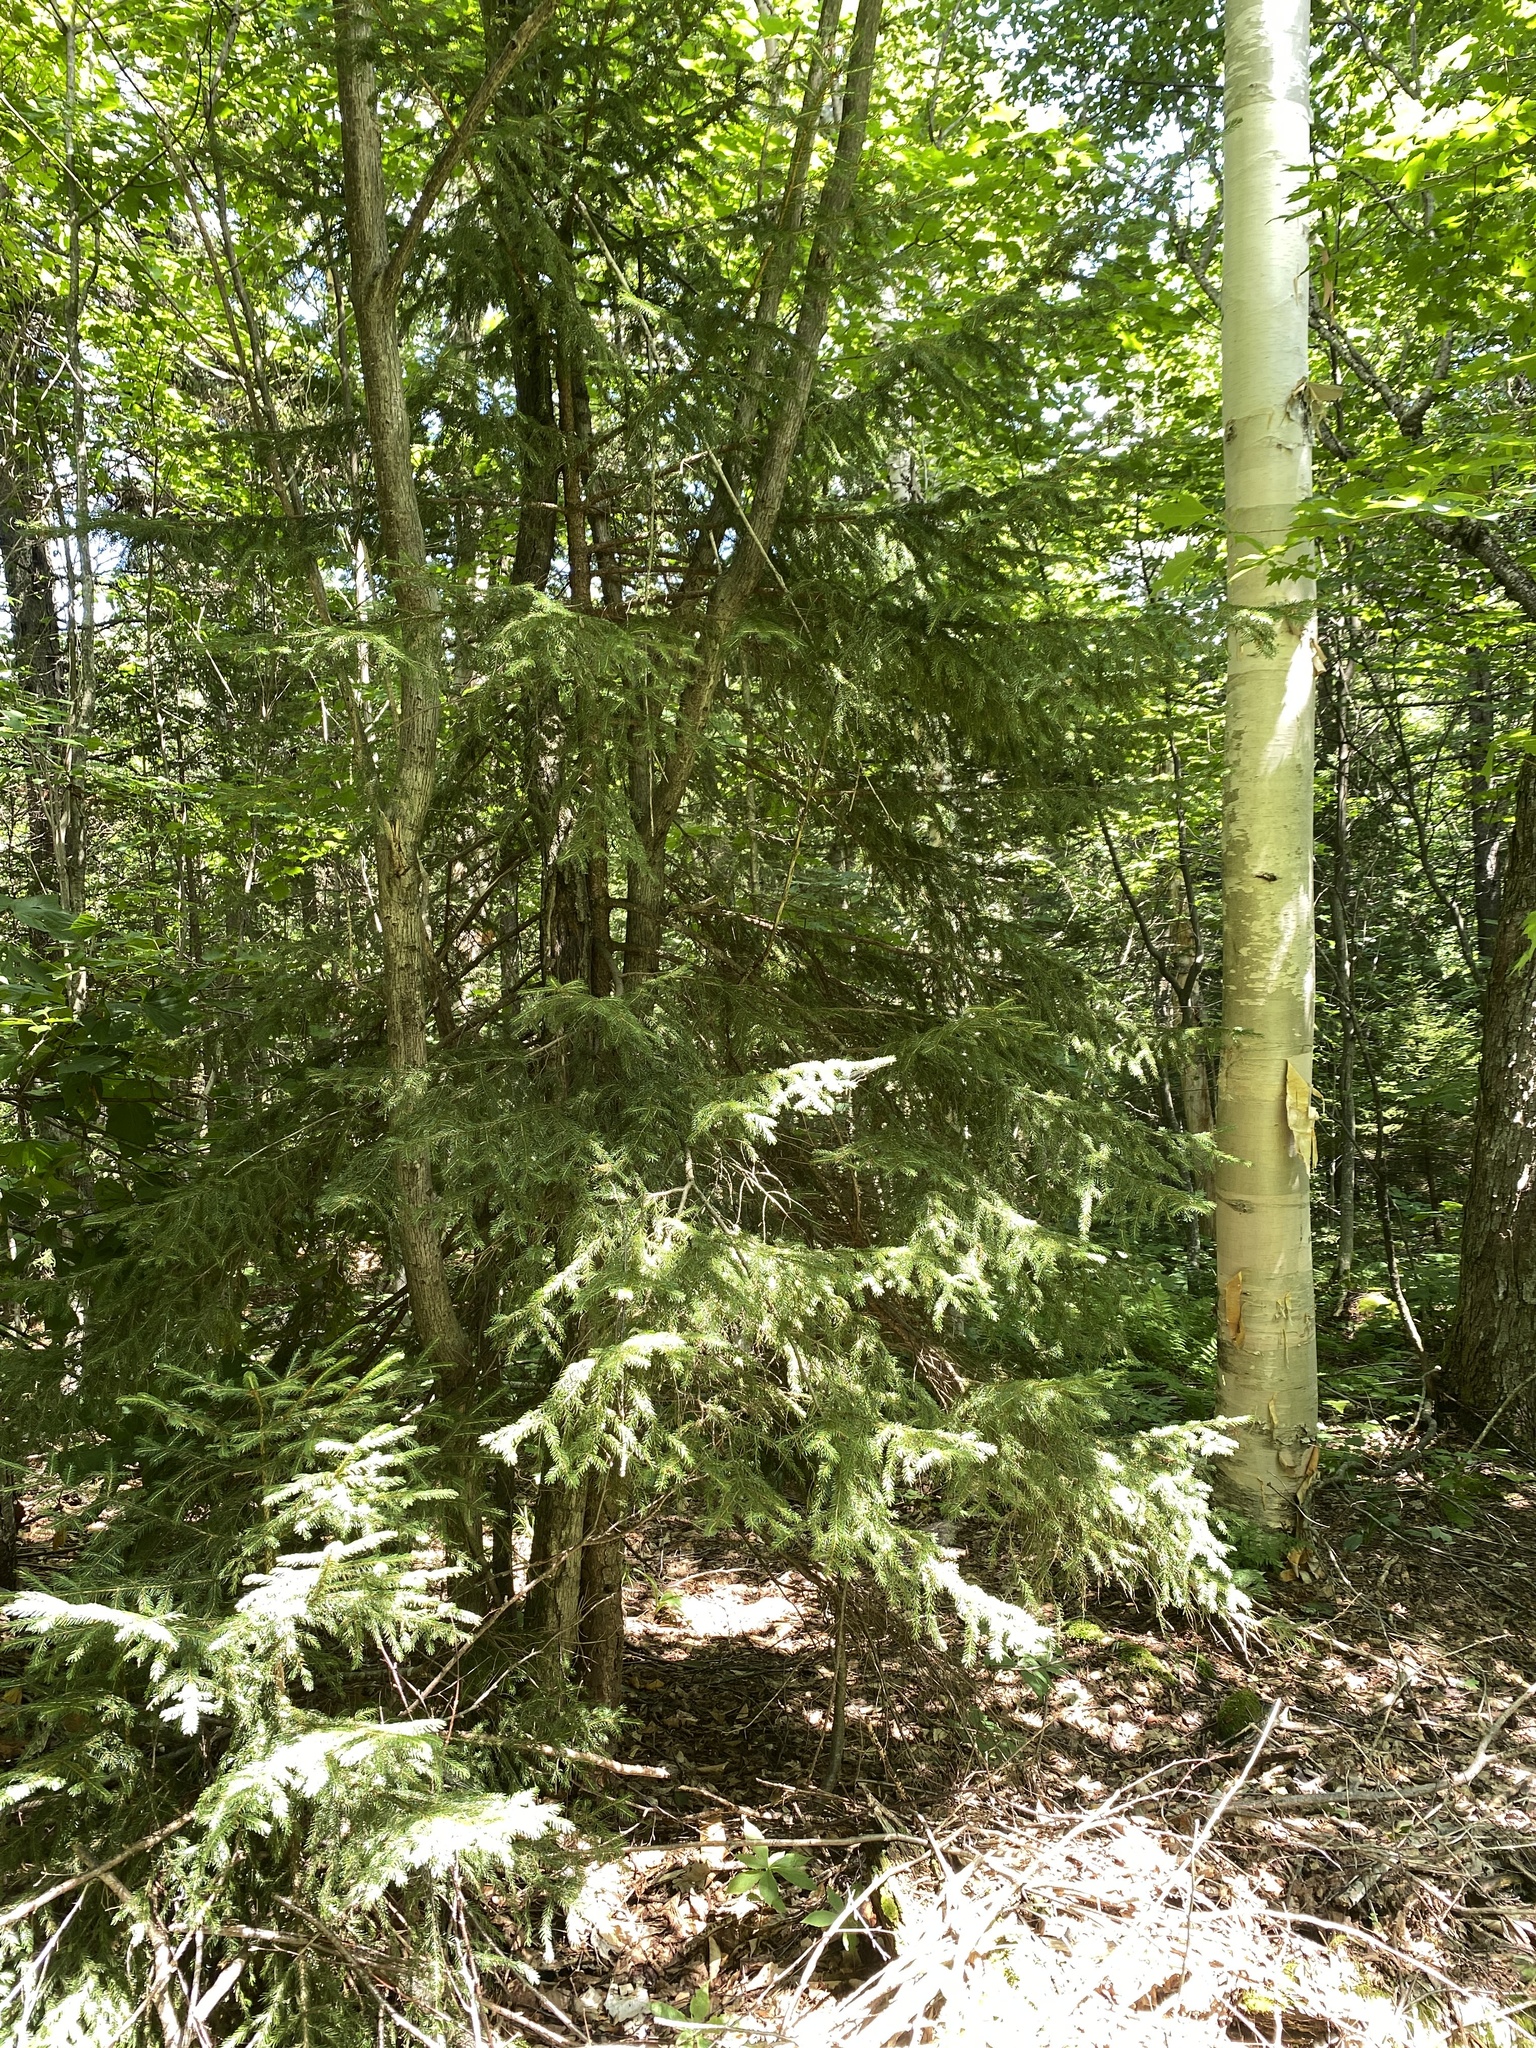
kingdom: Plantae
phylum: Tracheophyta
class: Pinopsida
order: Pinales
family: Pinaceae
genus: Picea
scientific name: Picea rubens
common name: Red spruce
